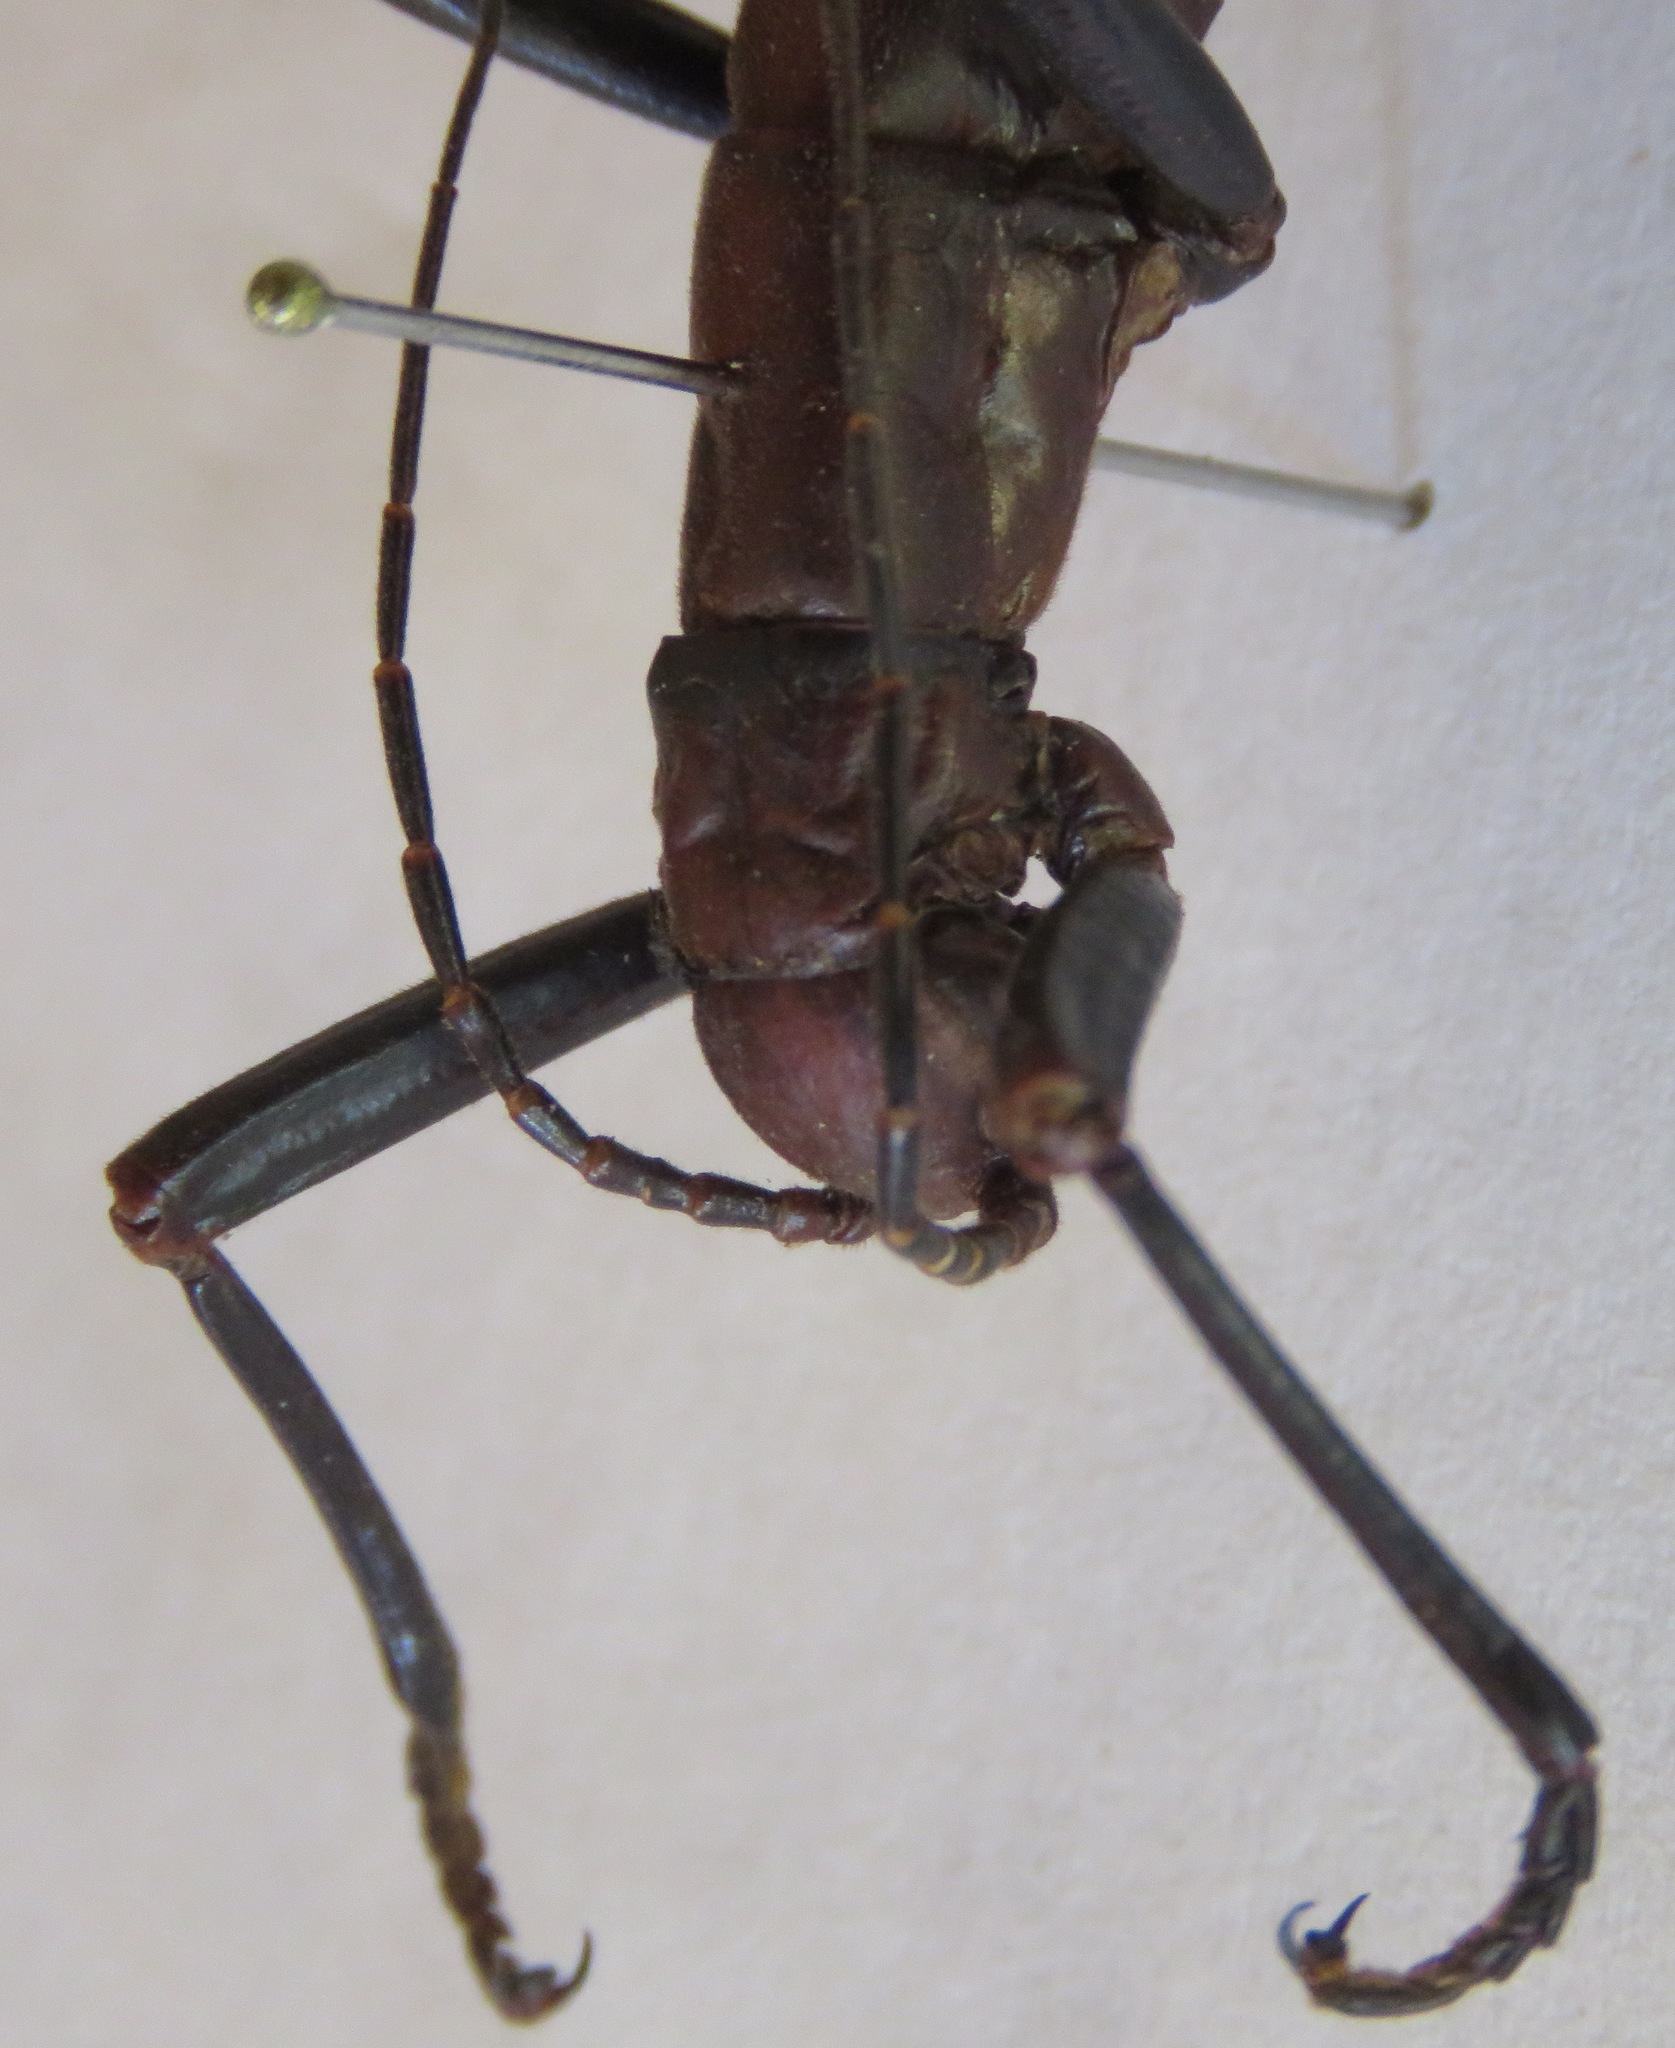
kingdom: Animalia
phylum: Arthropoda
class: Insecta
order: Phasmida
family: Pseudophasmatidae
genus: Autolyca
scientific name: Autolyca herculeana
